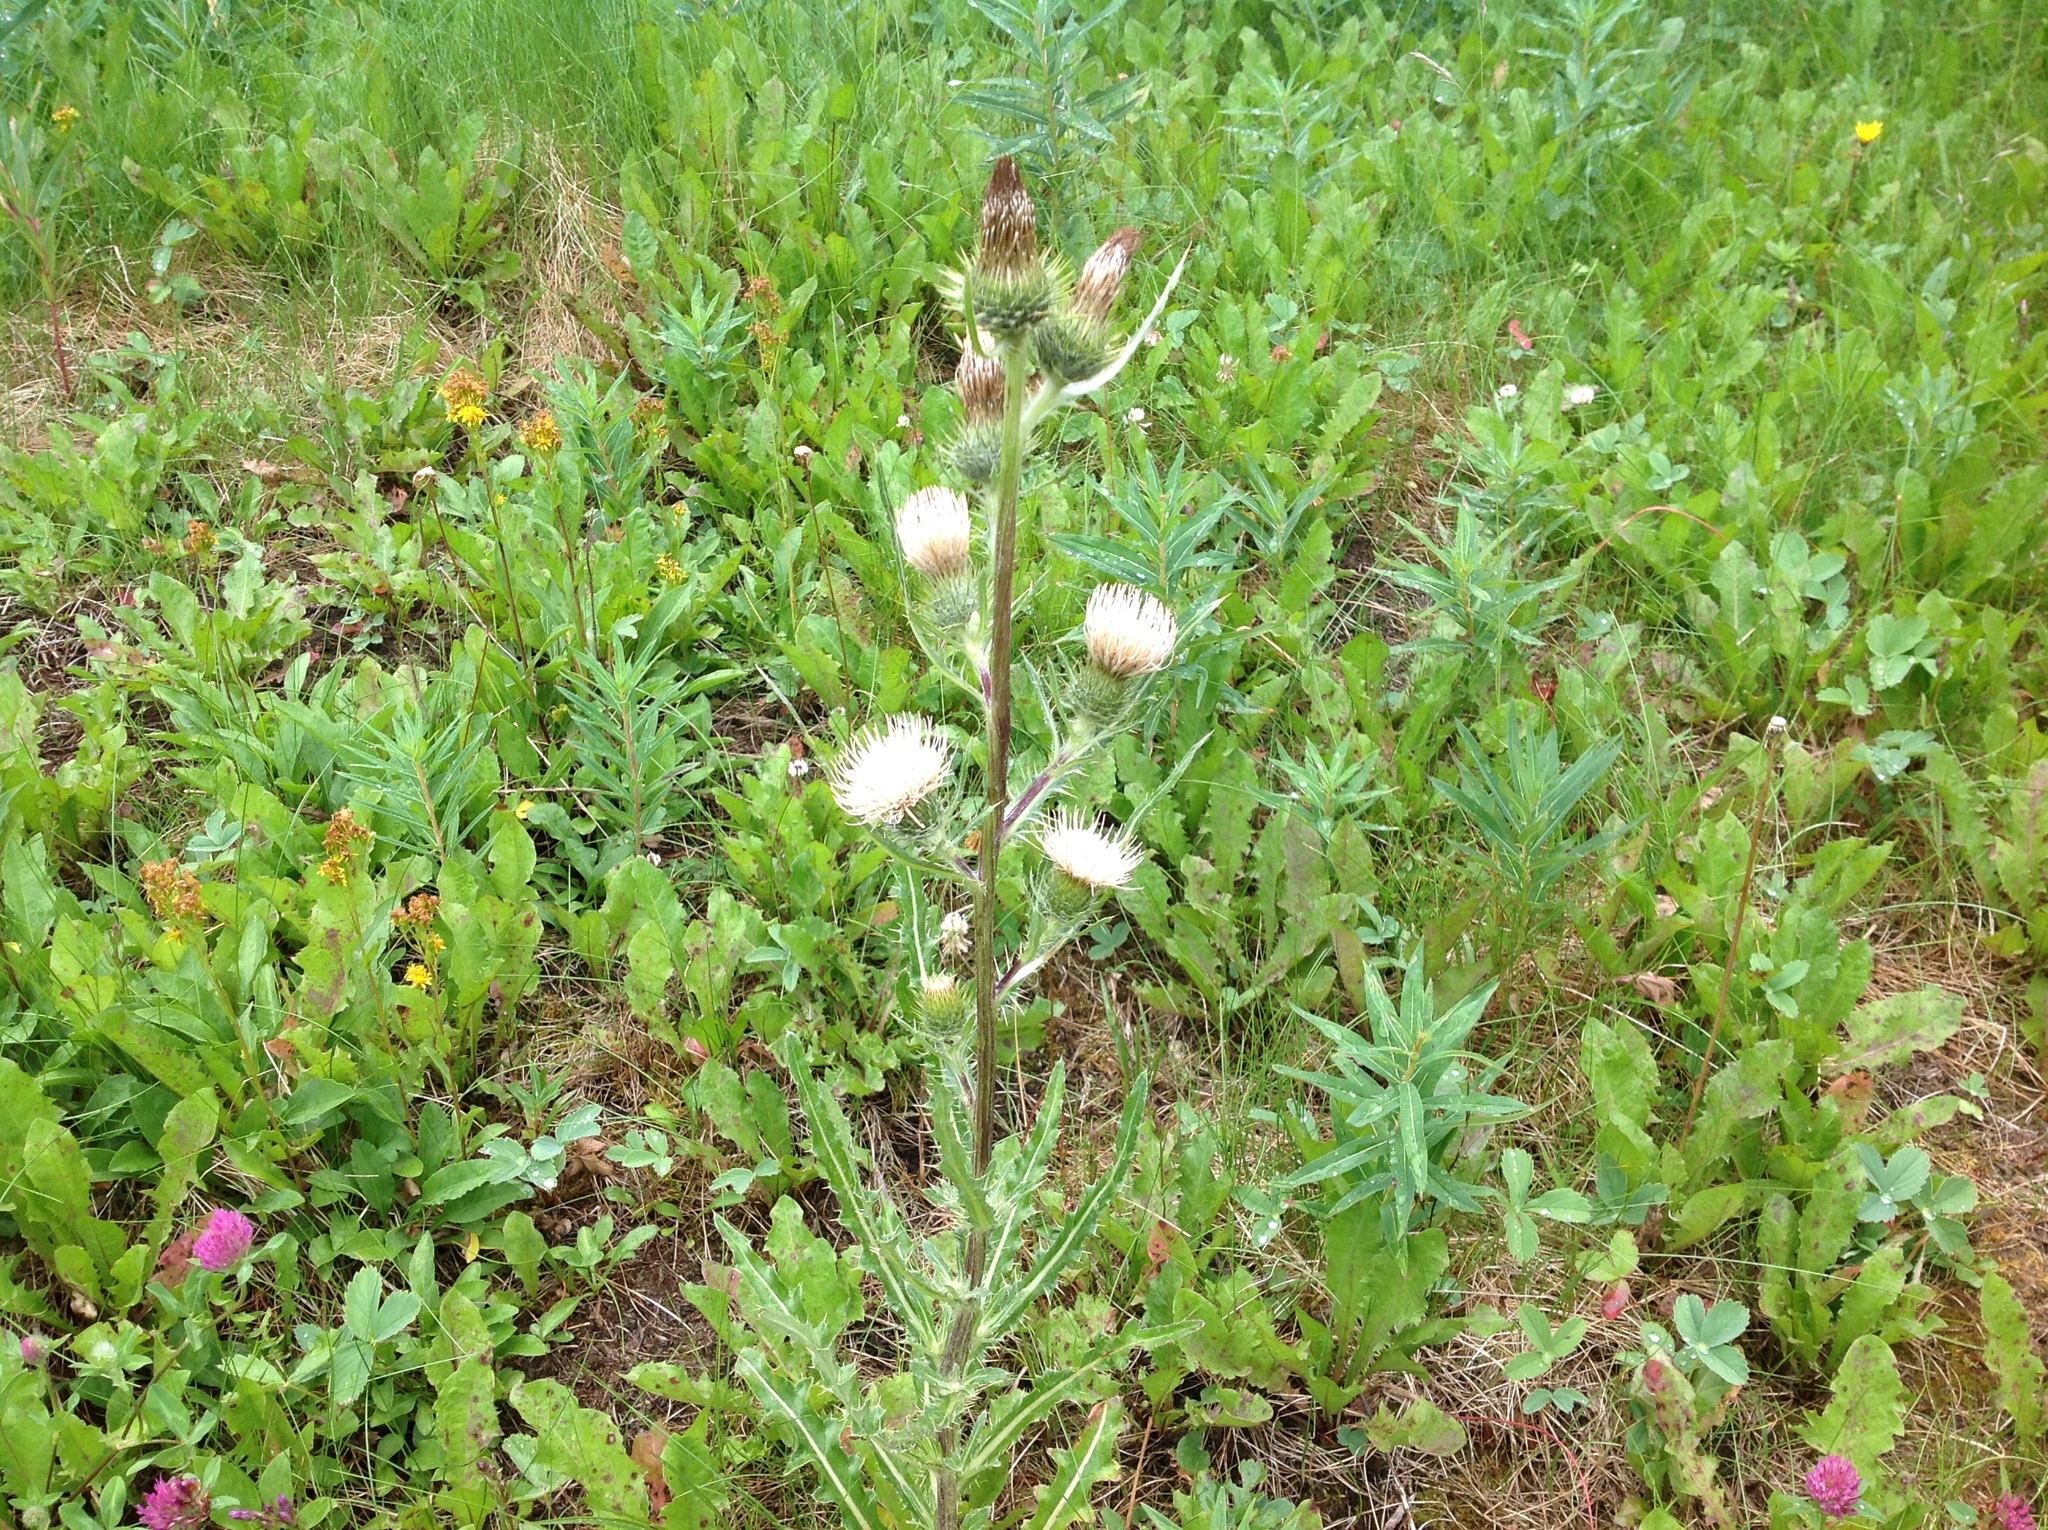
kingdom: Plantae
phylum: Tracheophyta
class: Magnoliopsida
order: Asterales
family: Asteraceae
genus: Cirsium
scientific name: Cirsium hookerianum
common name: Hooker's thistle
